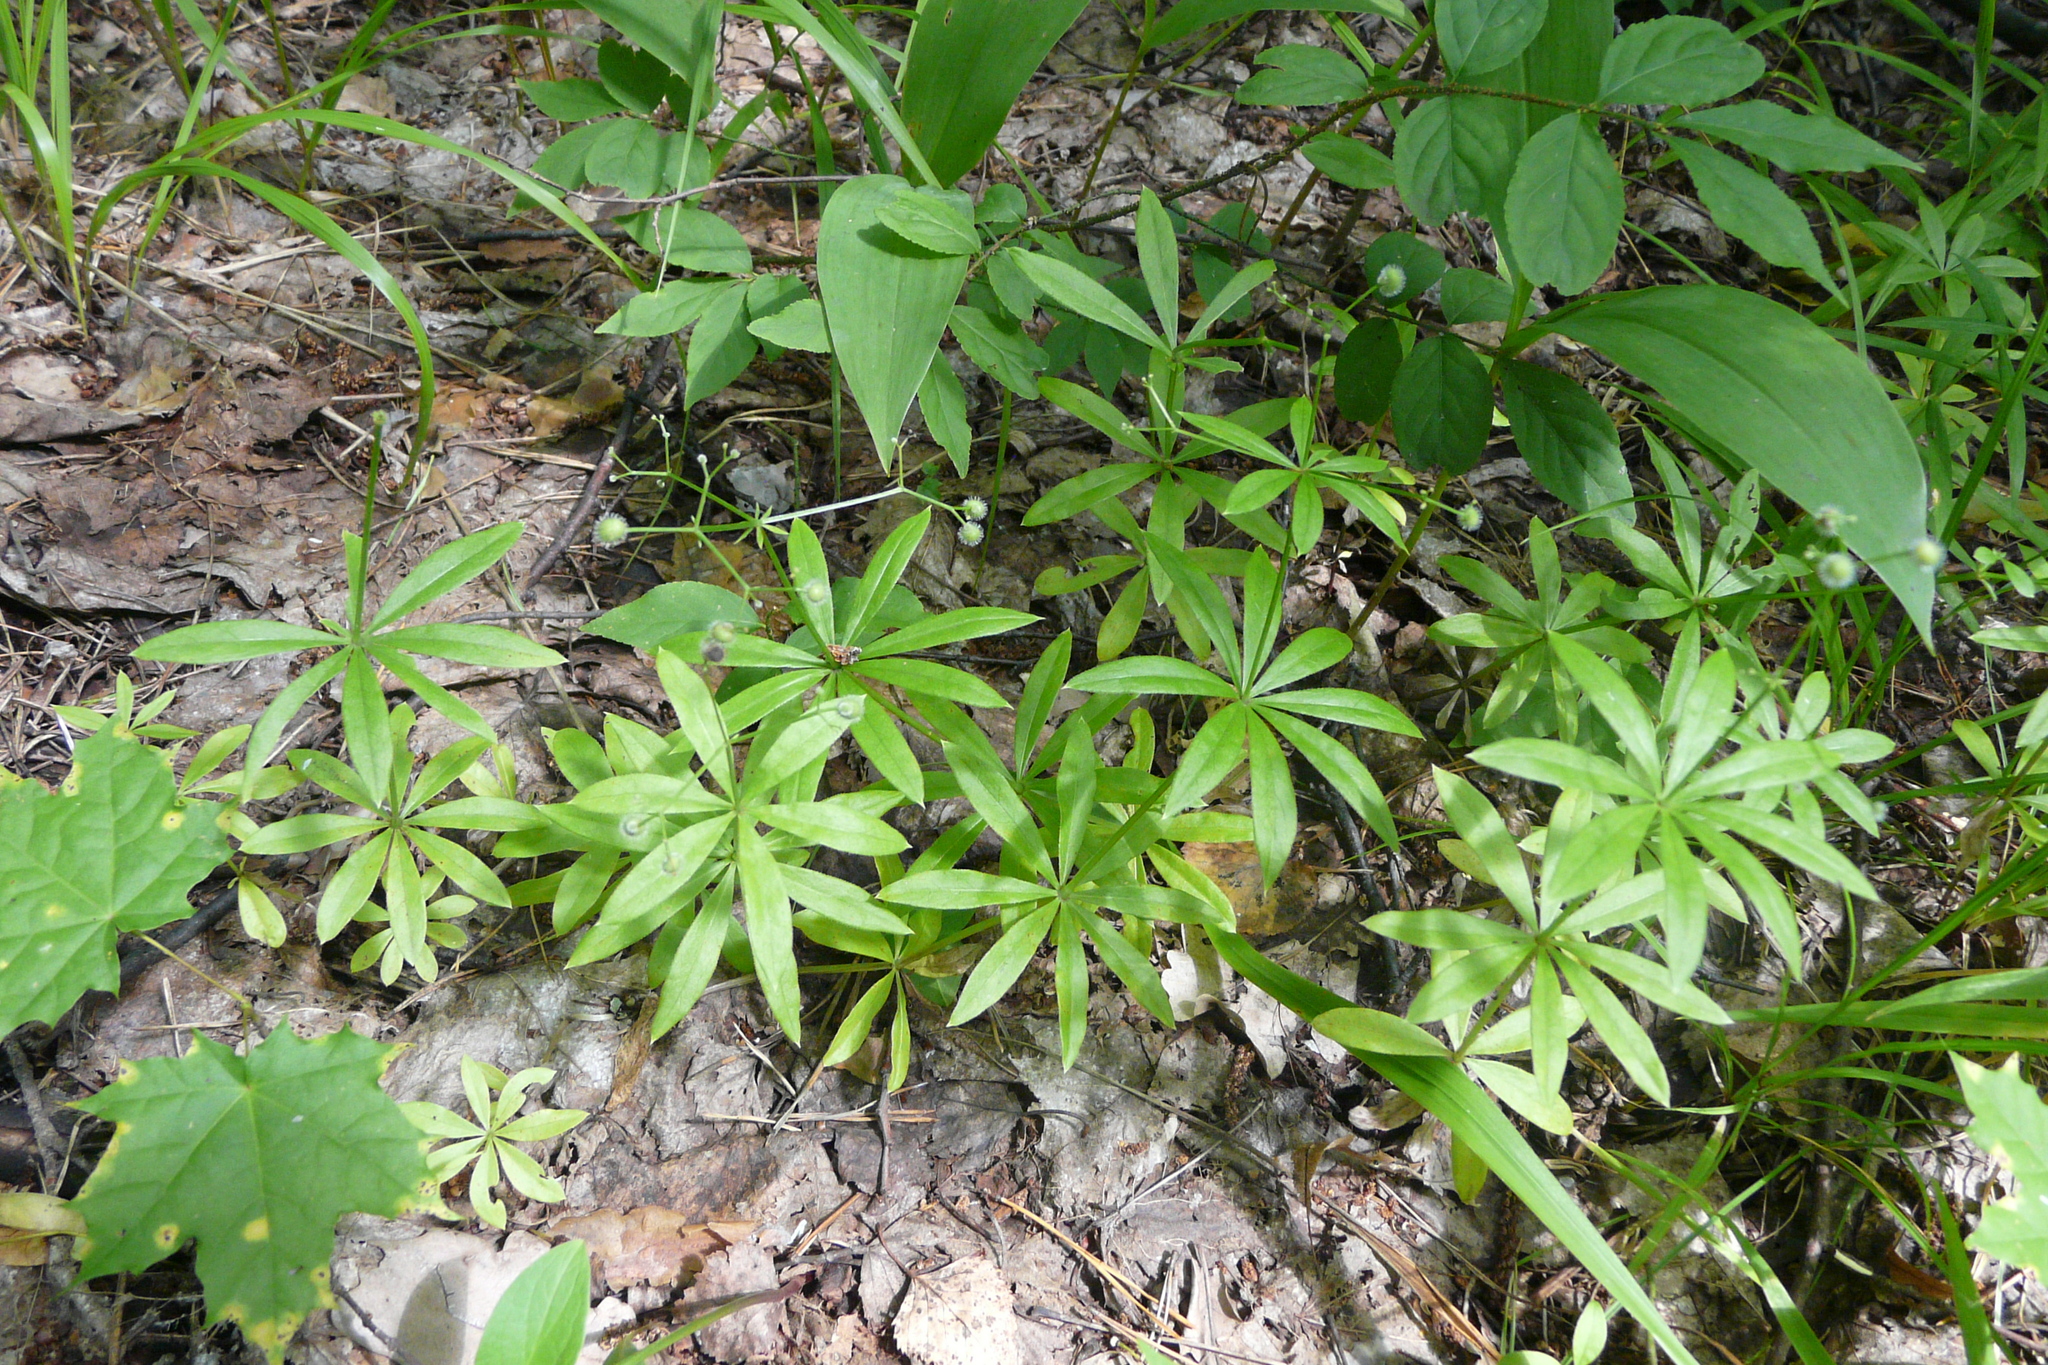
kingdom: Plantae
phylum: Tracheophyta
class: Magnoliopsida
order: Gentianales
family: Rubiaceae
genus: Galium
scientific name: Galium odoratum
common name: Sweet woodruff
